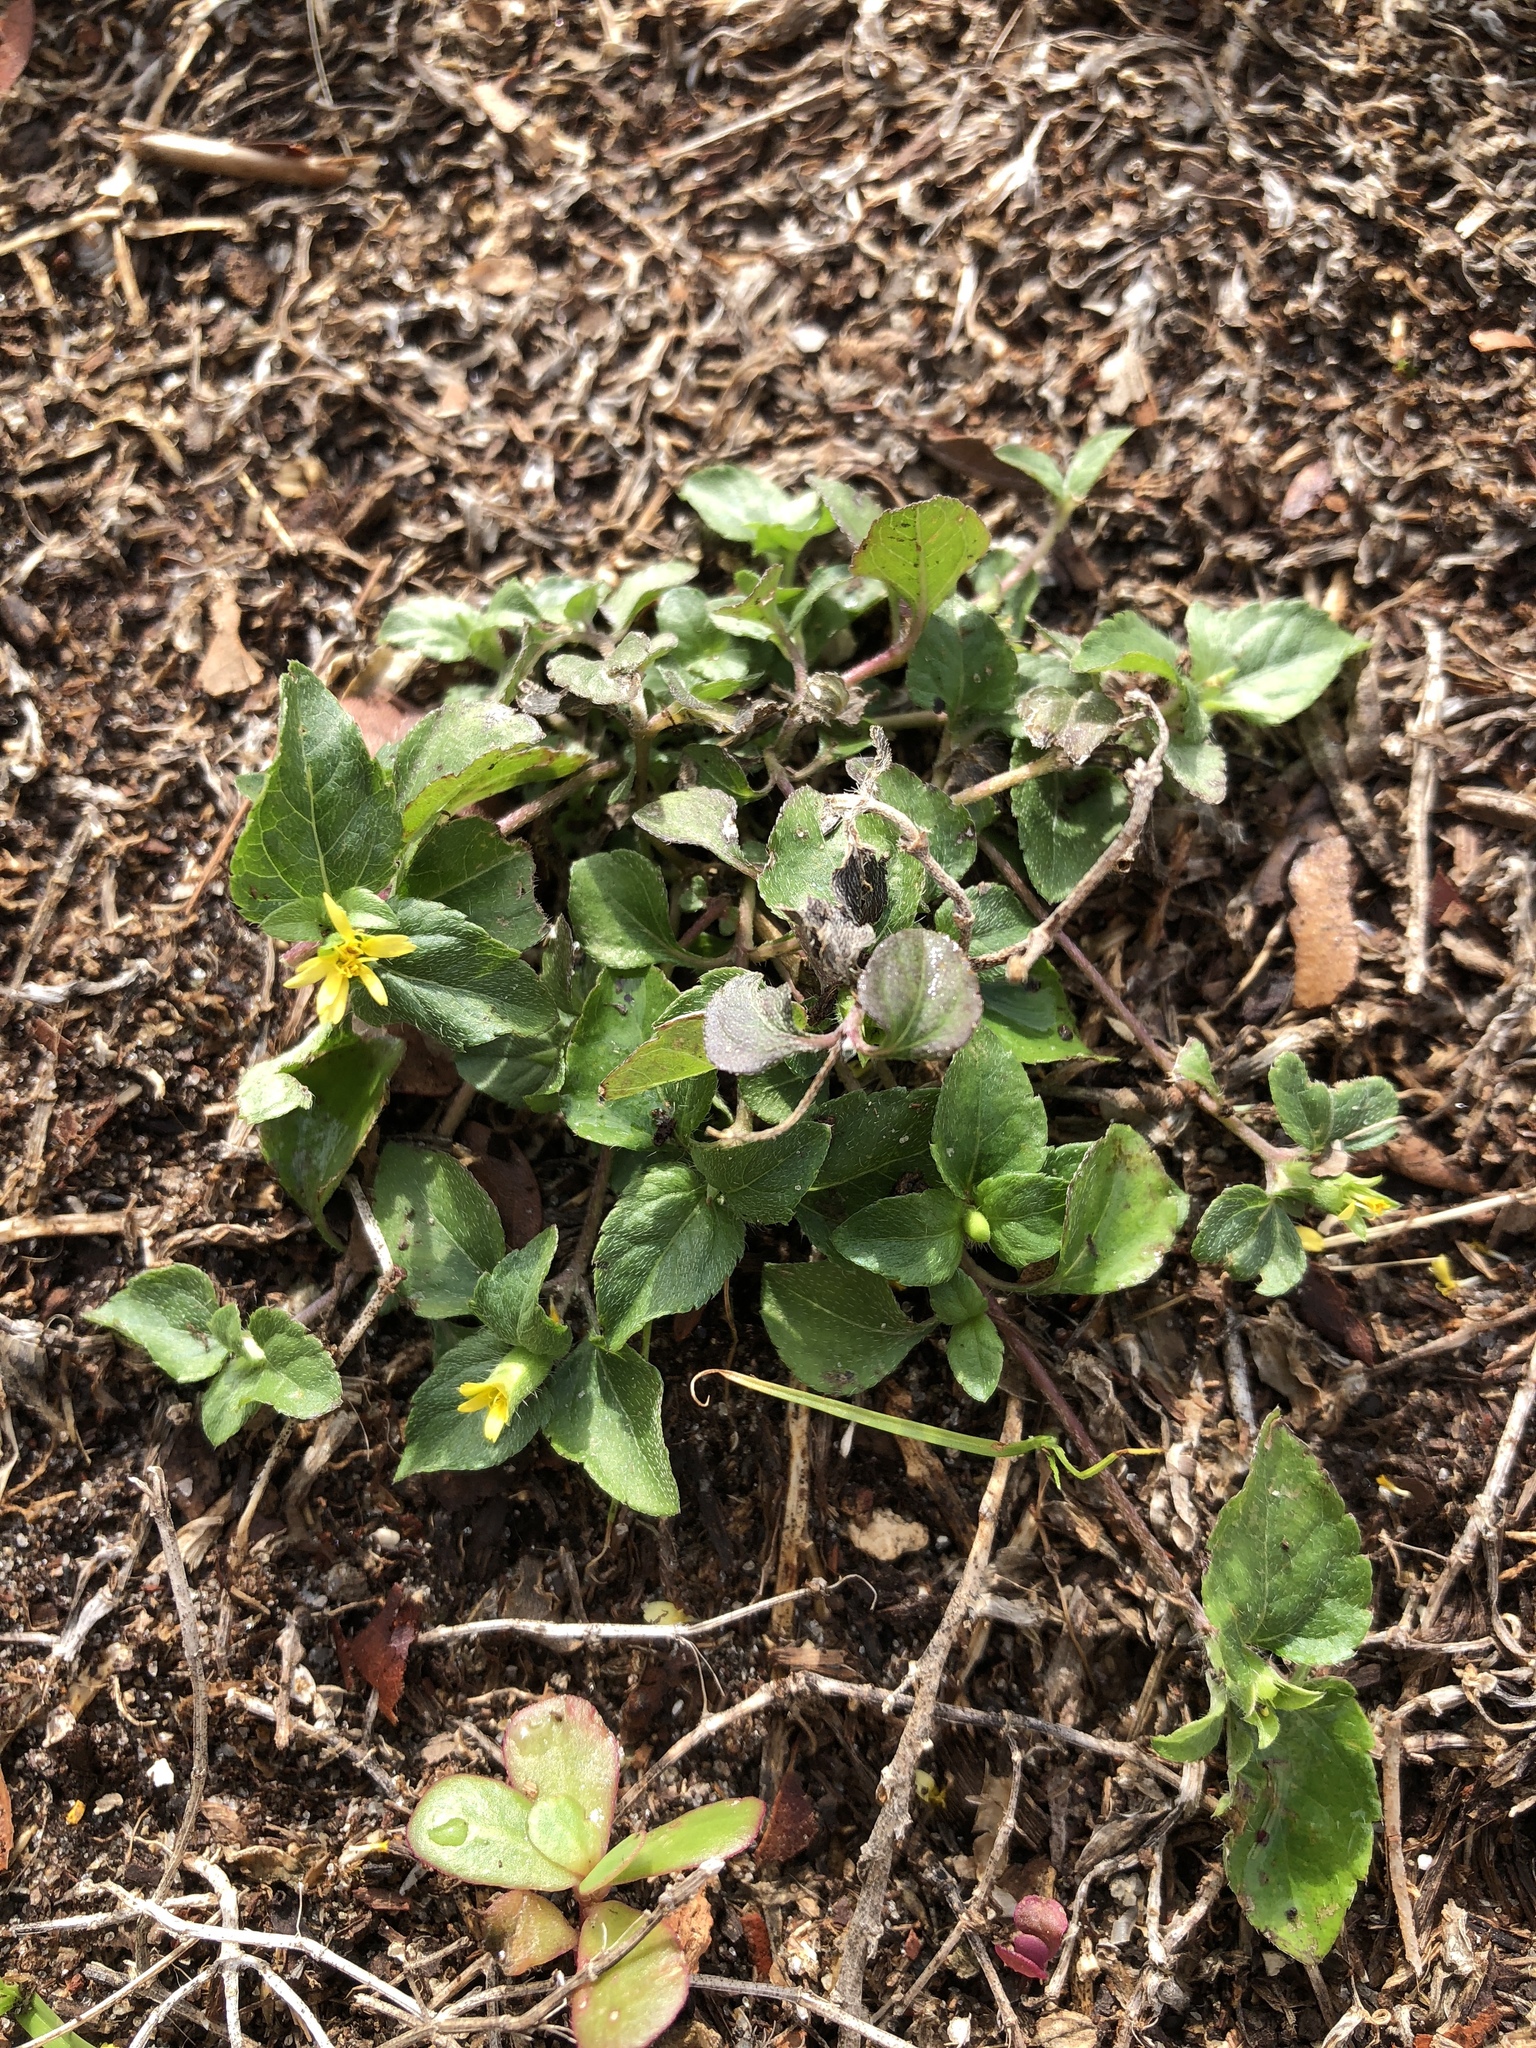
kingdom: Plantae
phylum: Tracheophyta
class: Magnoliopsida
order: Asterales
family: Asteraceae
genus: Calyptocarpus
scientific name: Calyptocarpus vialis
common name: Straggler daisy
